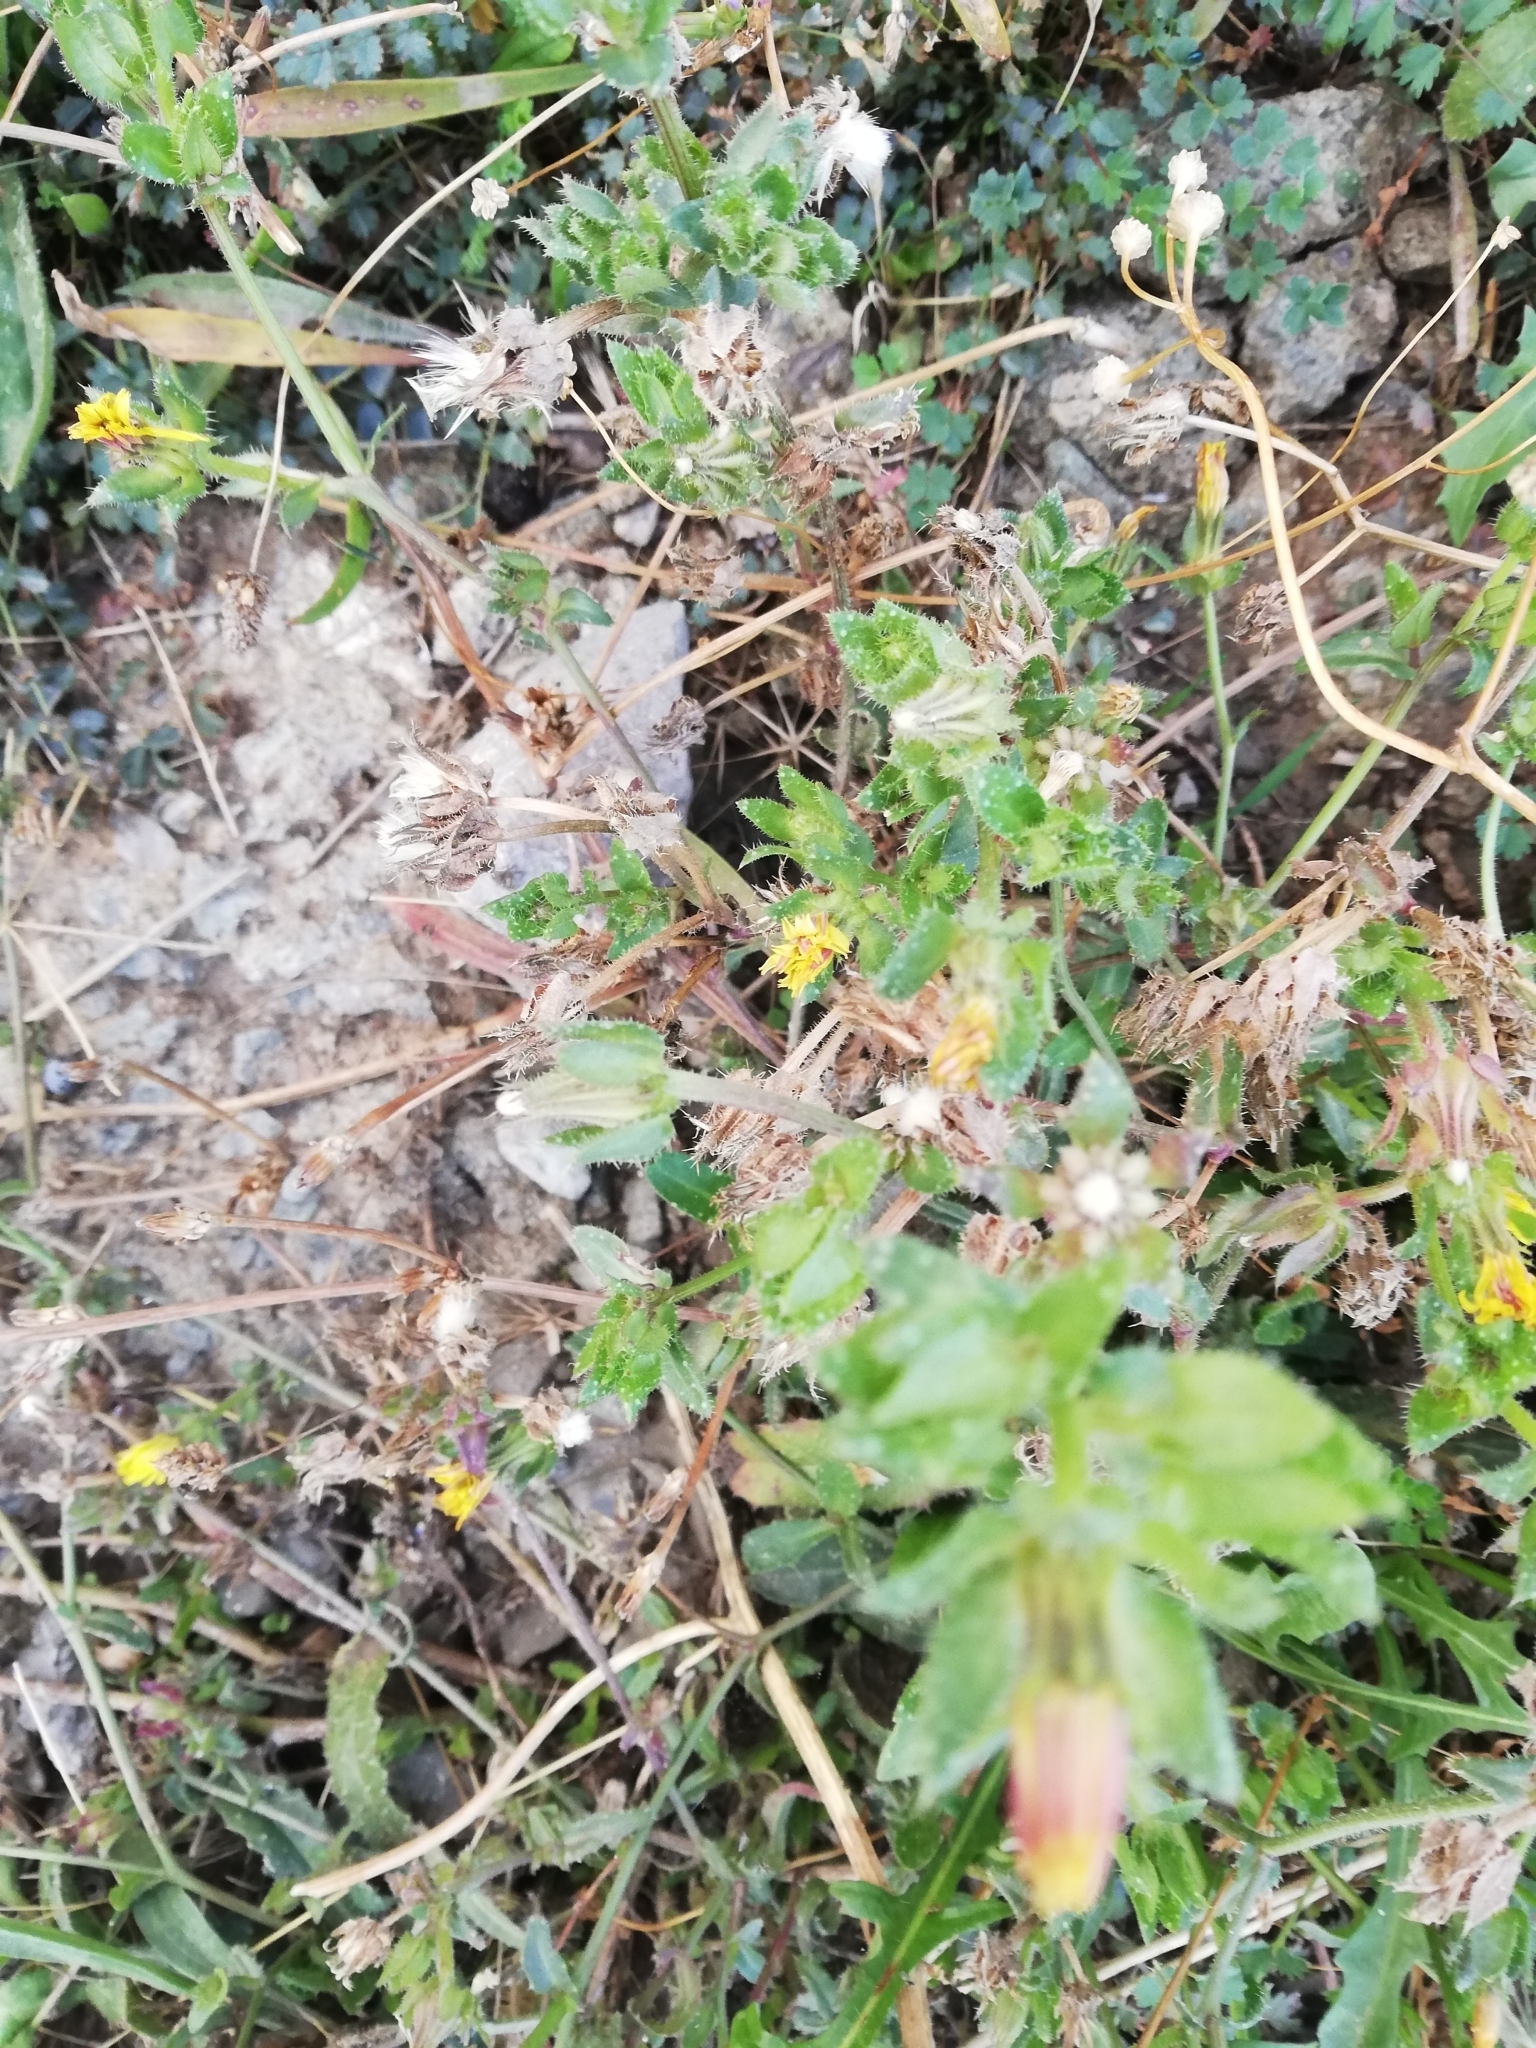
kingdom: Plantae
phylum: Tracheophyta
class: Magnoliopsida
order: Asterales
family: Asteraceae
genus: Helminthotheca
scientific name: Helminthotheca echioides
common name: Ox-tongue
